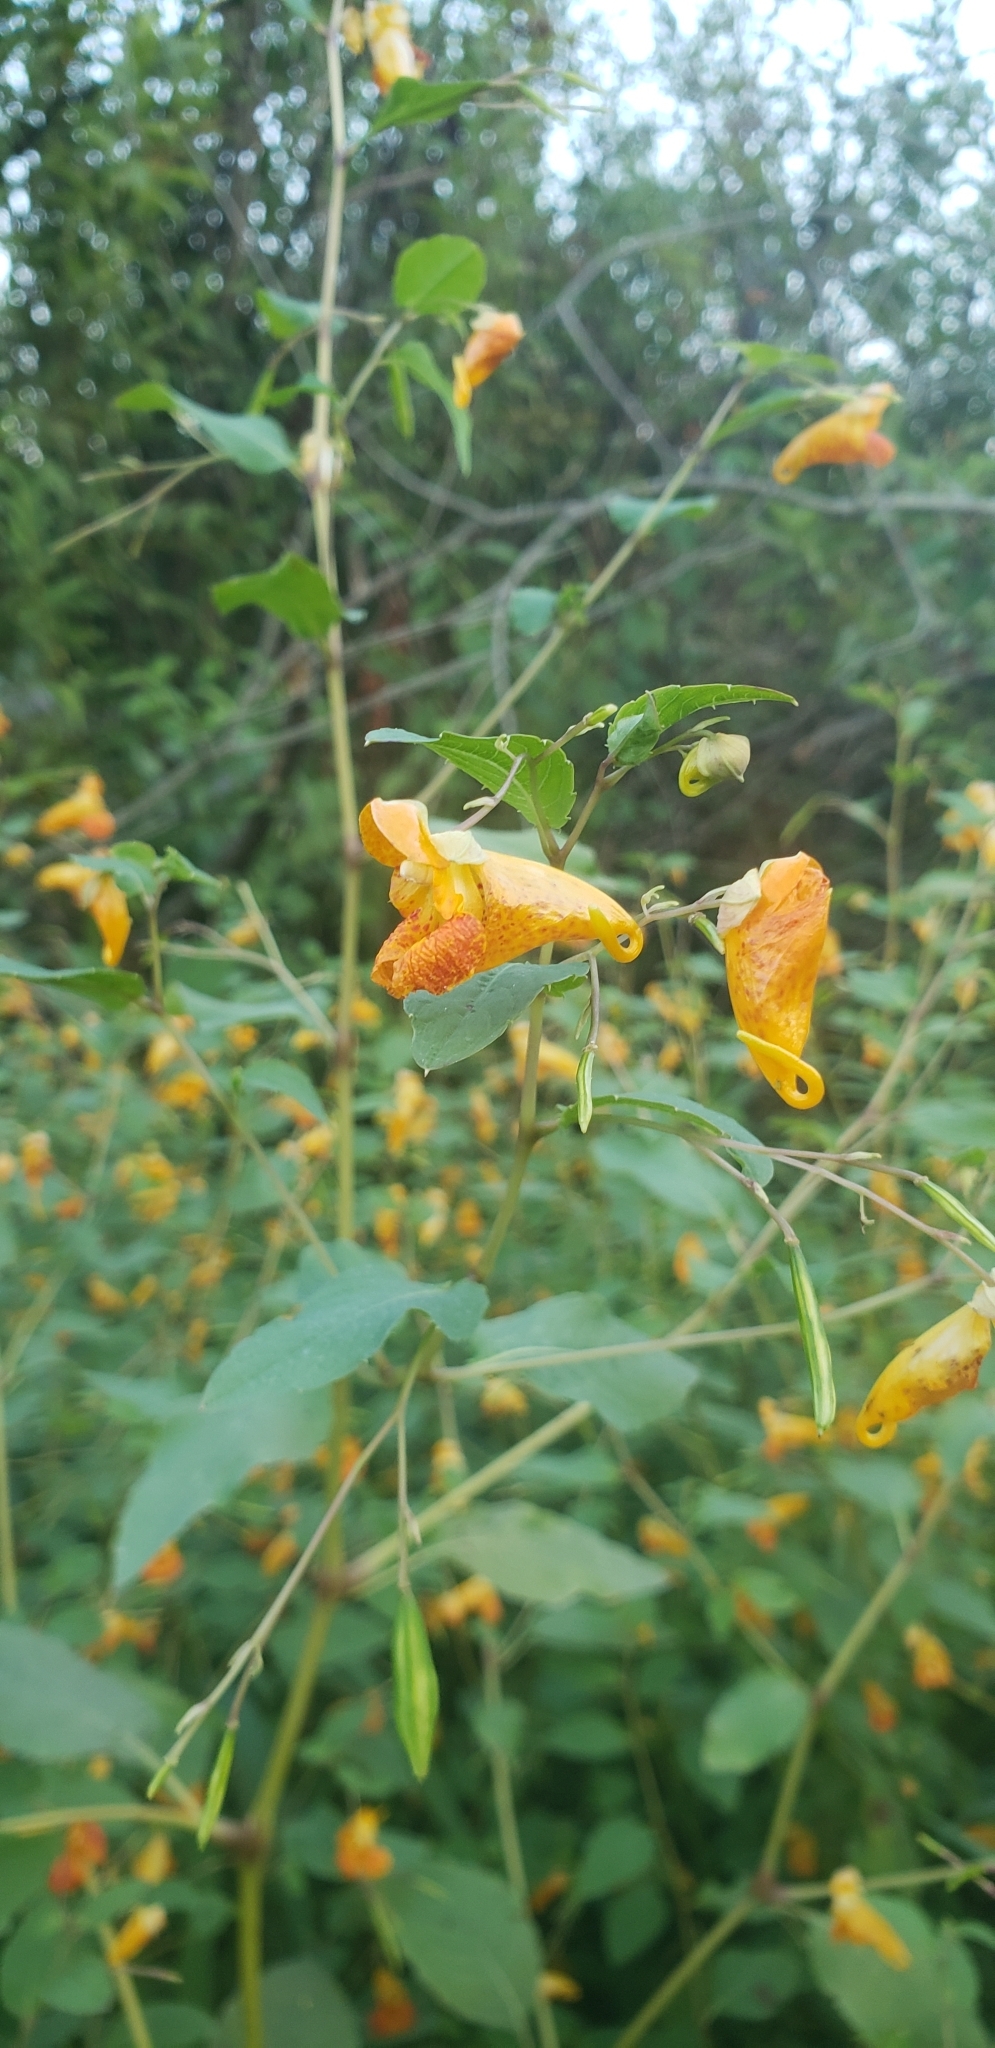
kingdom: Plantae
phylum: Tracheophyta
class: Magnoliopsida
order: Ericales
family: Balsaminaceae
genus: Impatiens
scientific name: Impatiens capensis
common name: Orange balsam
